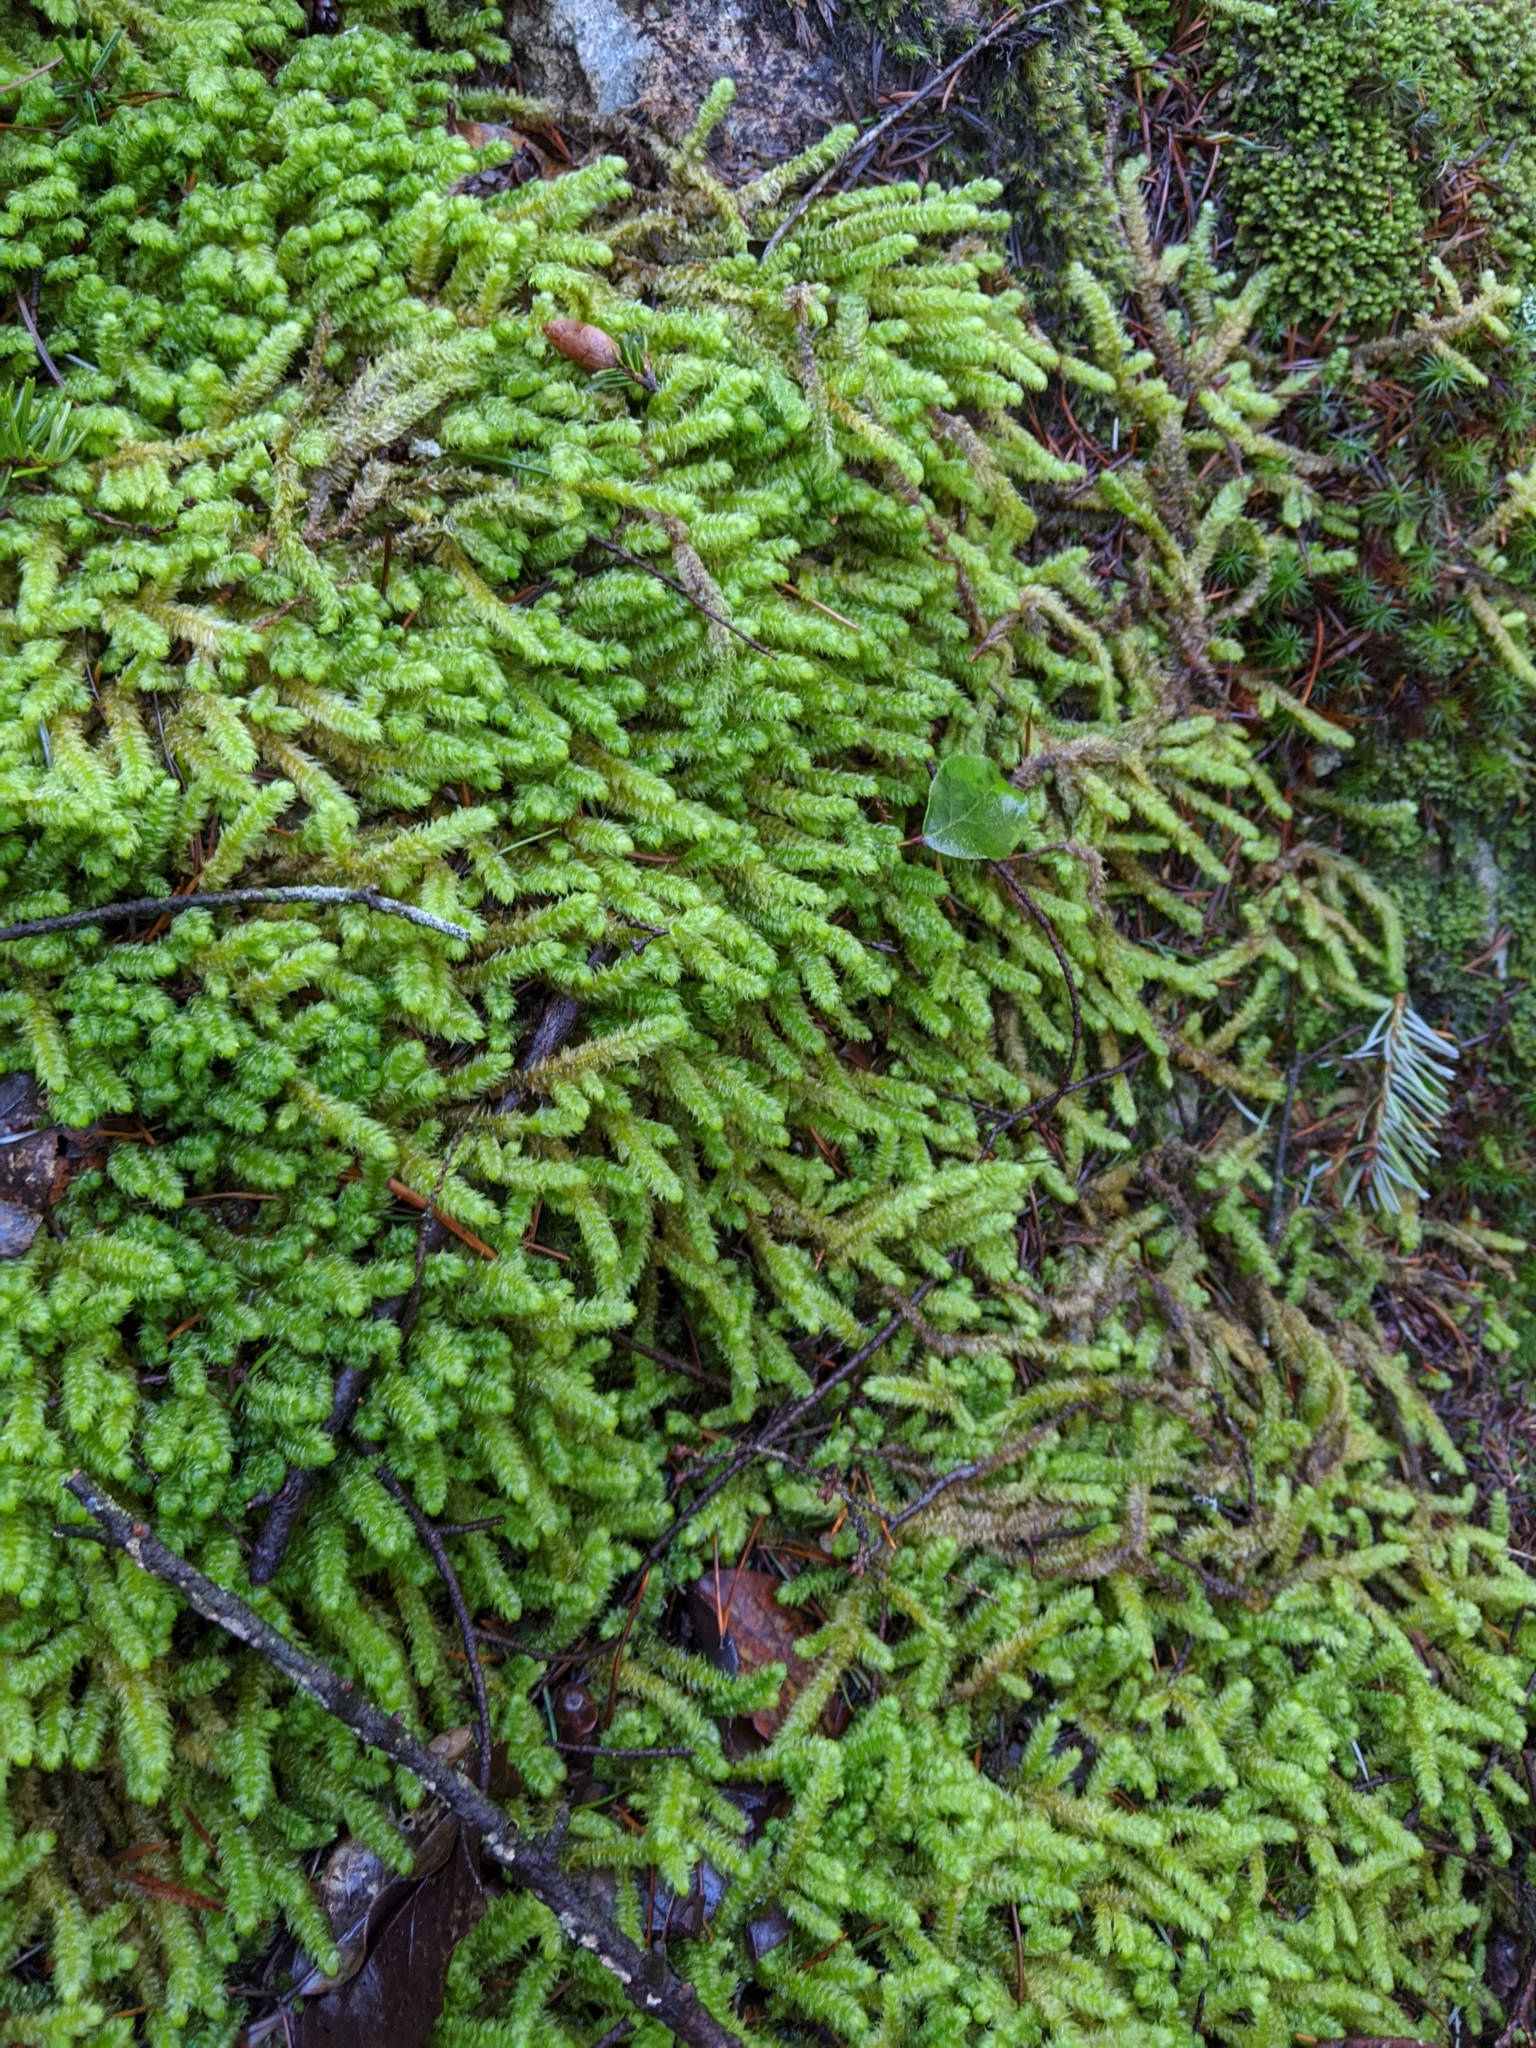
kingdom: Plantae
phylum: Bryophyta
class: Bryopsida
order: Hypnales
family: Hylocomiaceae
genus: Rhytidiopsis
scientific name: Rhytidiopsis robusta
